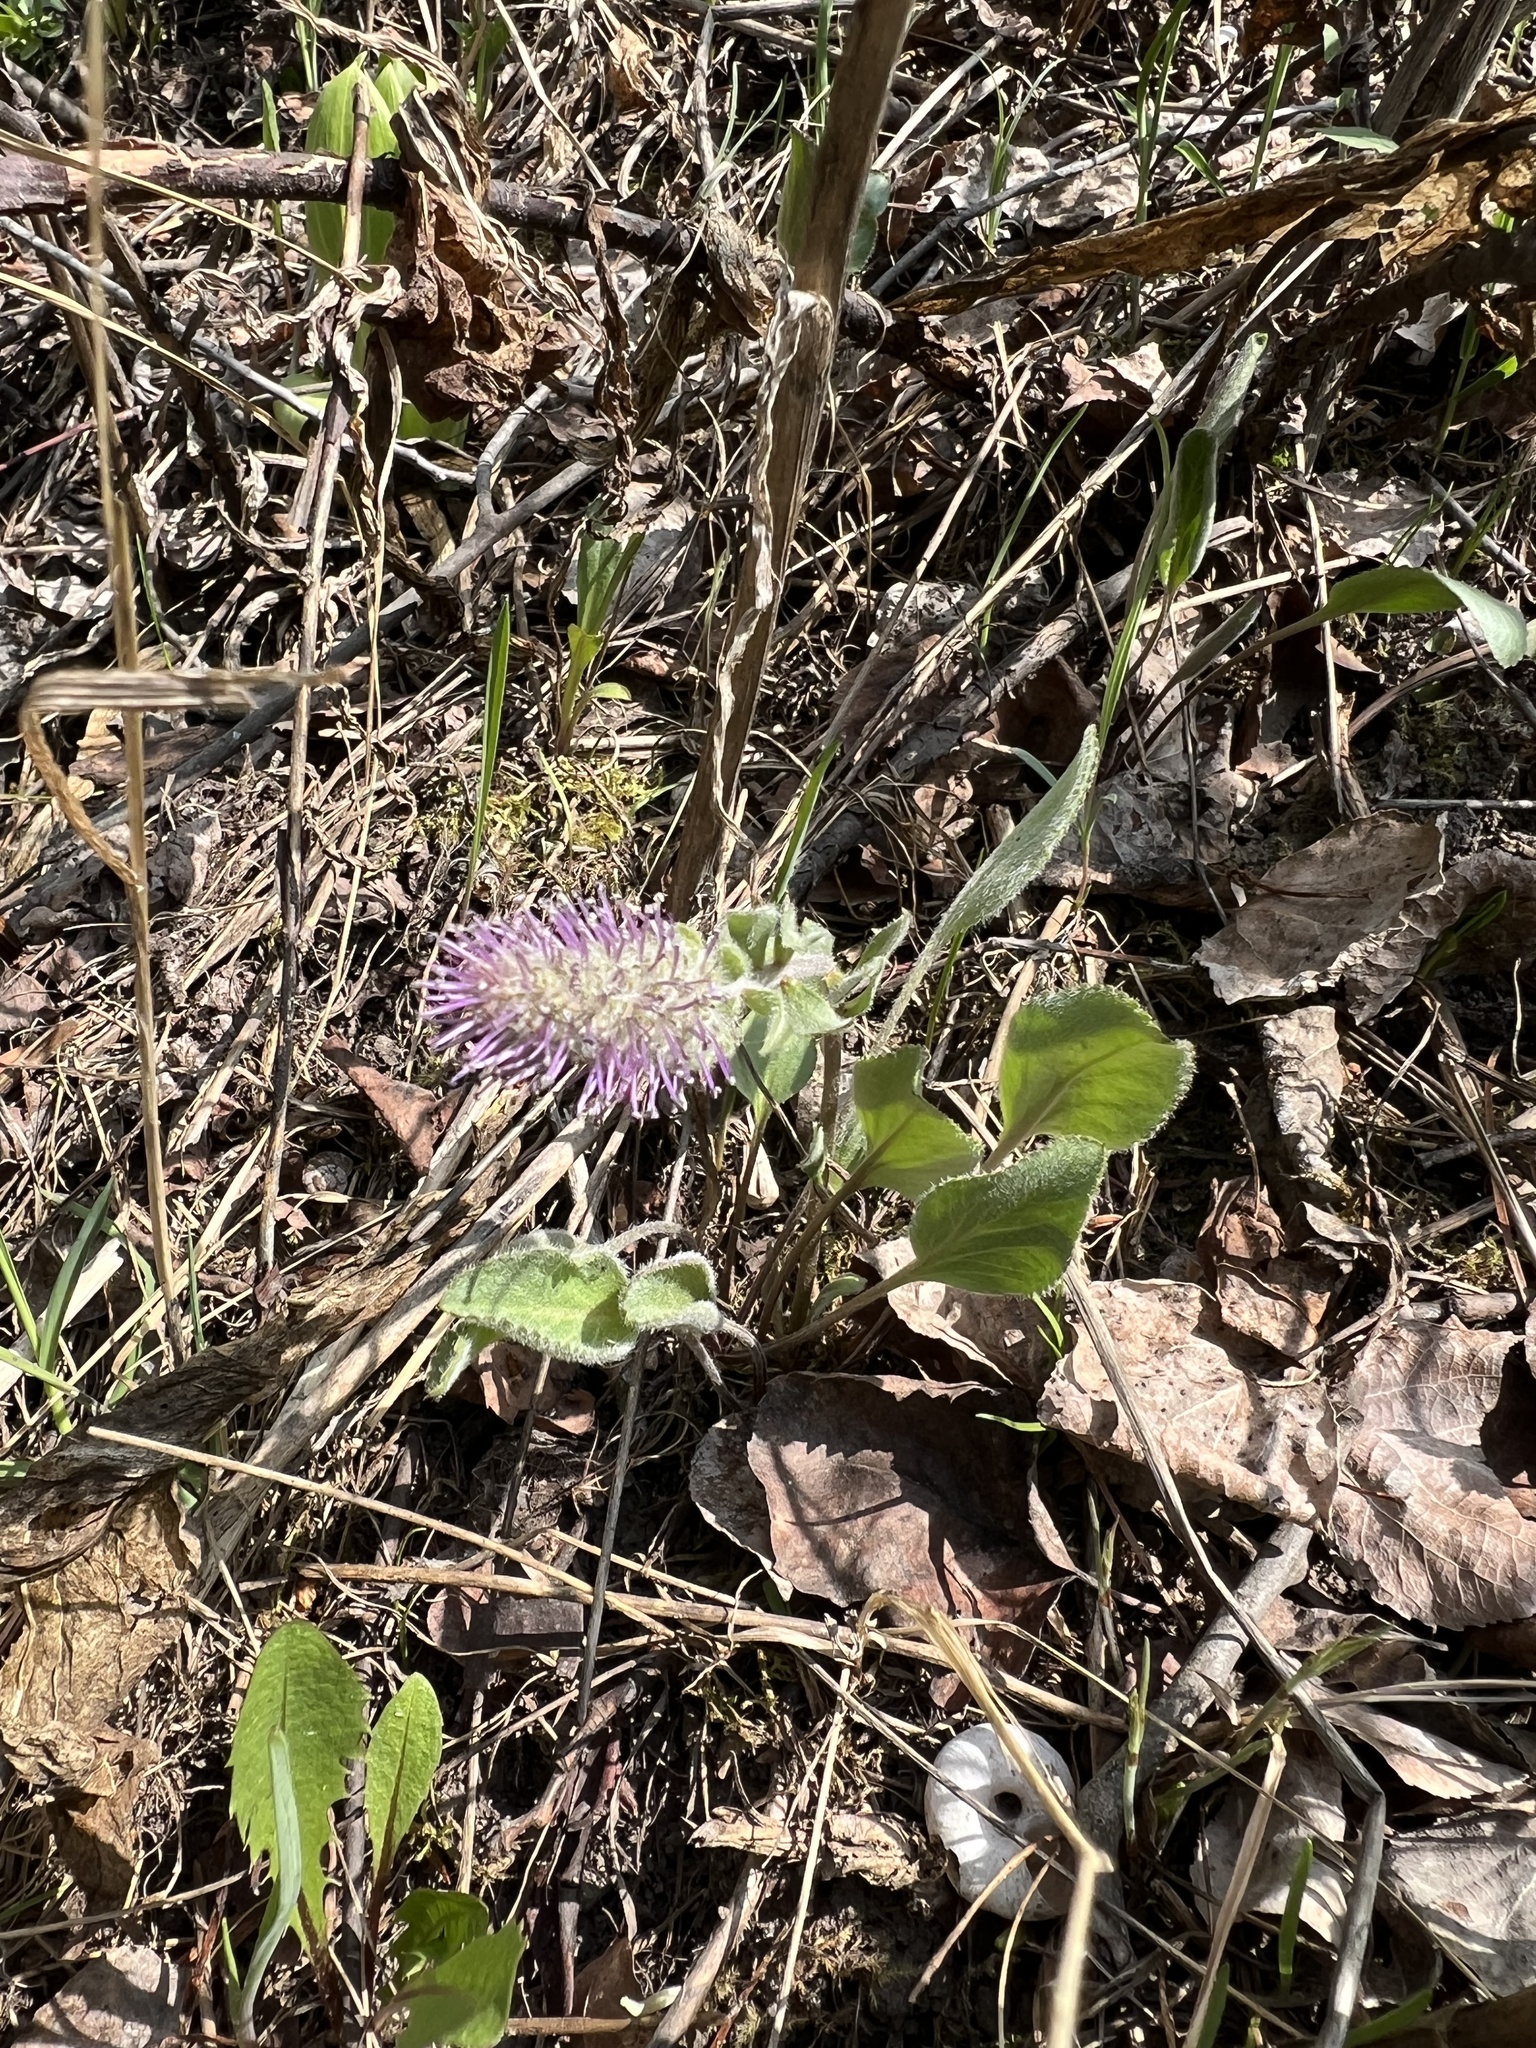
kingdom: Plantae
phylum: Tracheophyta
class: Magnoliopsida
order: Lamiales
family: Plantaginaceae
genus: Synthyris
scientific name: Synthyris wyomingensis
